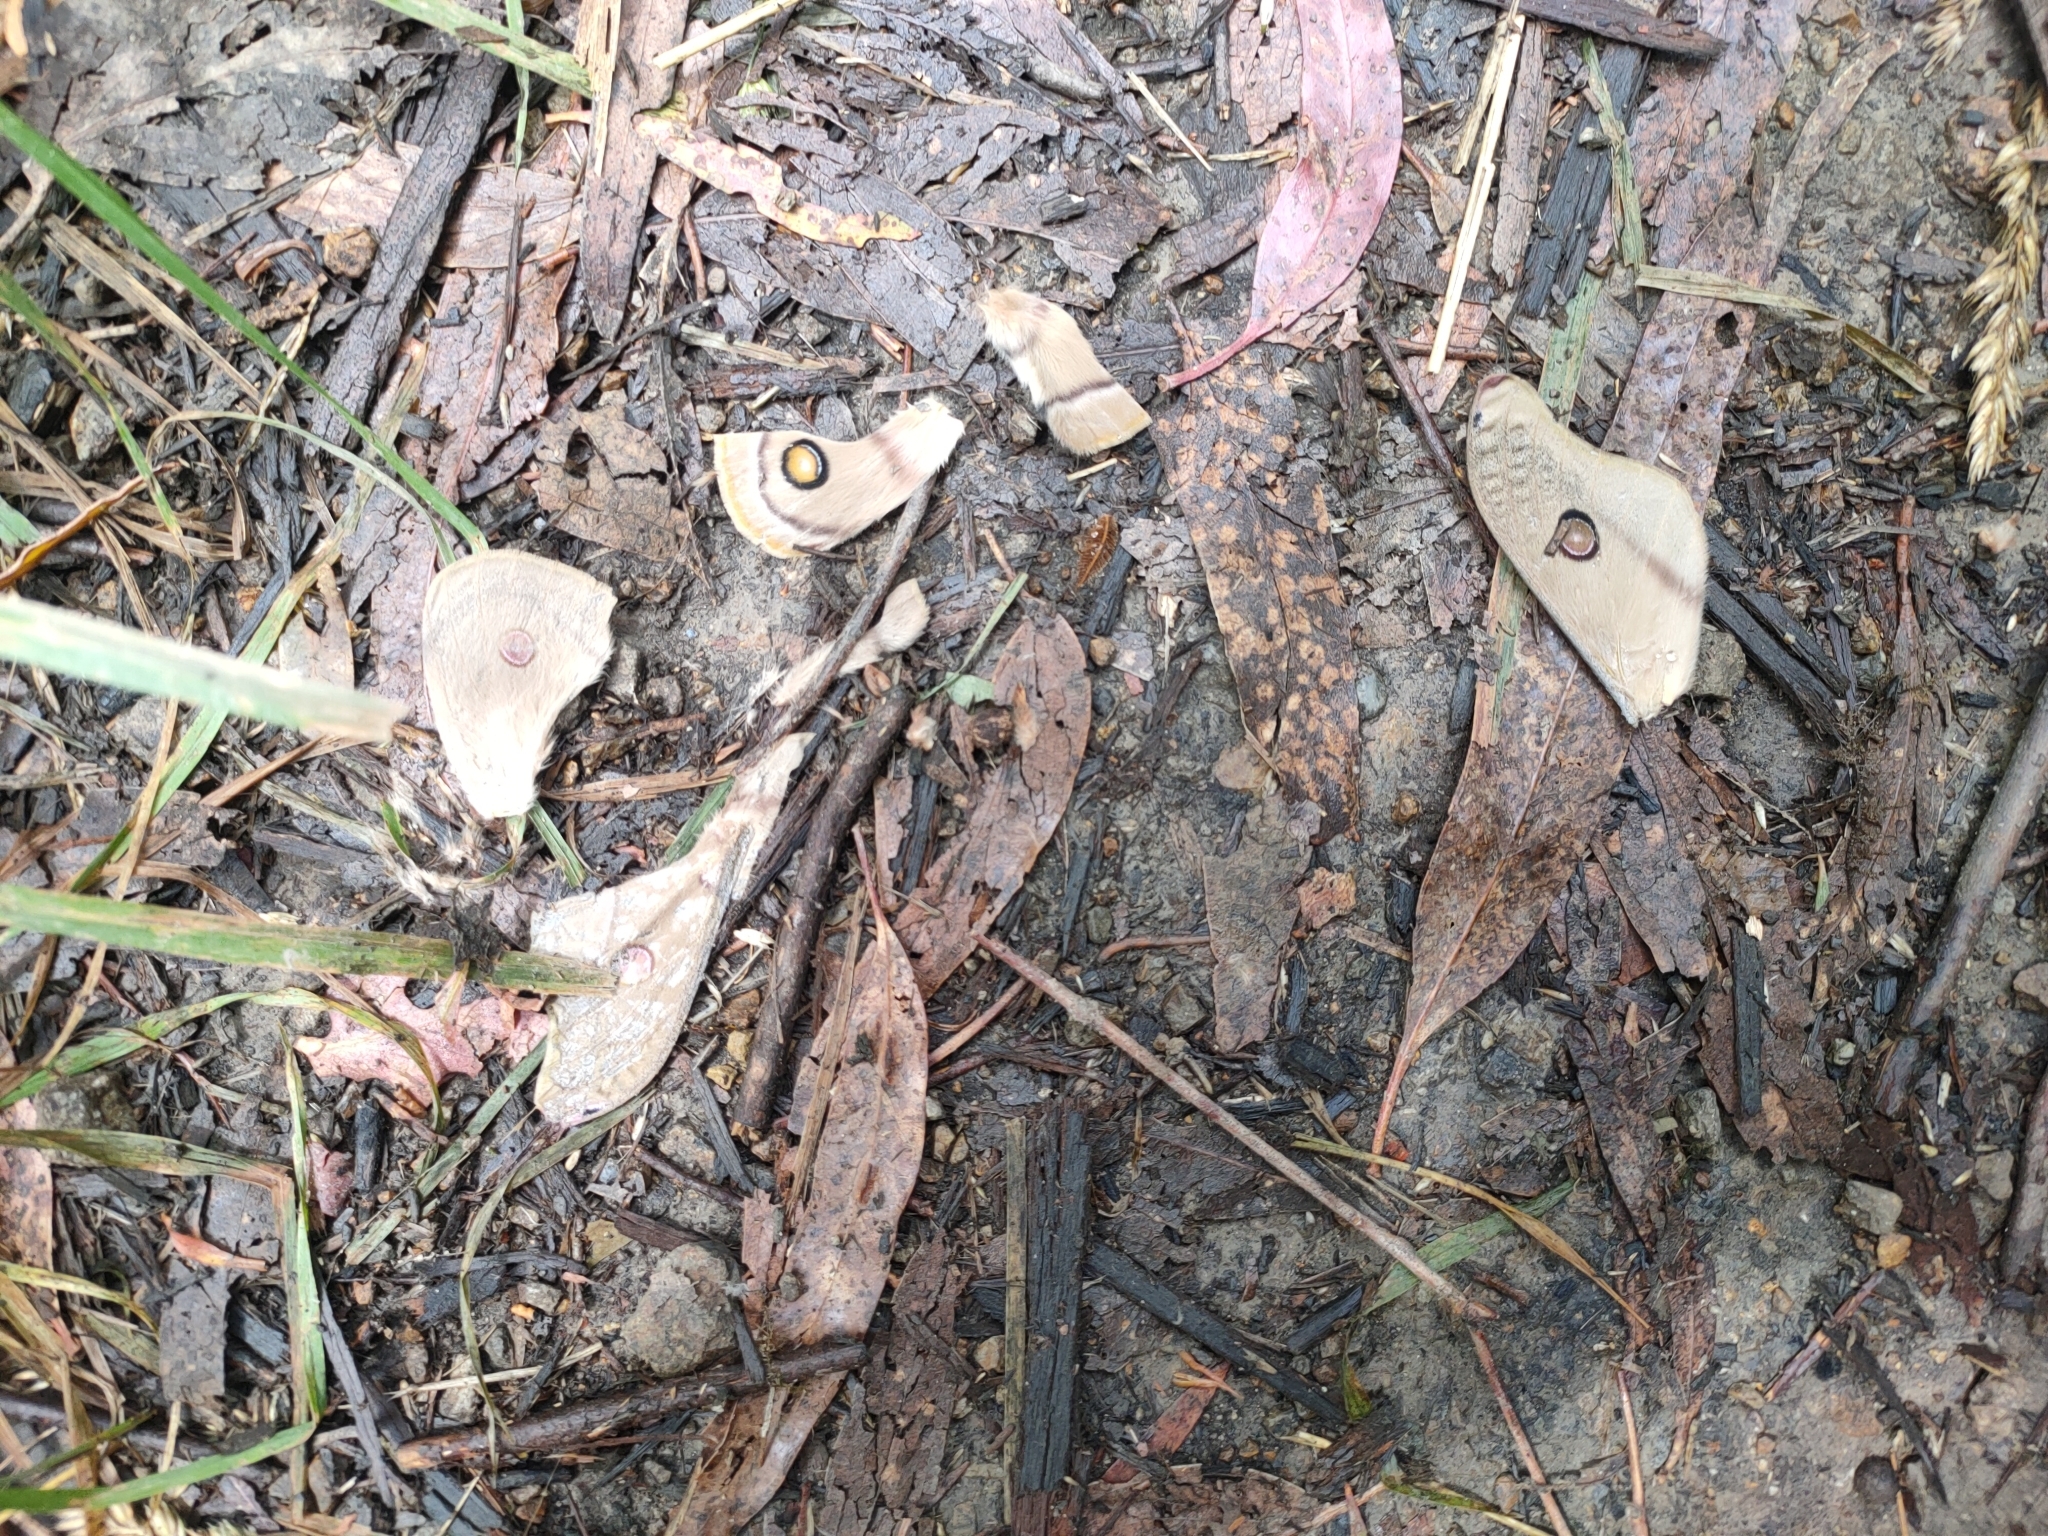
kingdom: Animalia
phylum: Arthropoda
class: Insecta
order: Lepidoptera
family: Saturniidae
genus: Opodiphthera
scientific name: Opodiphthera
